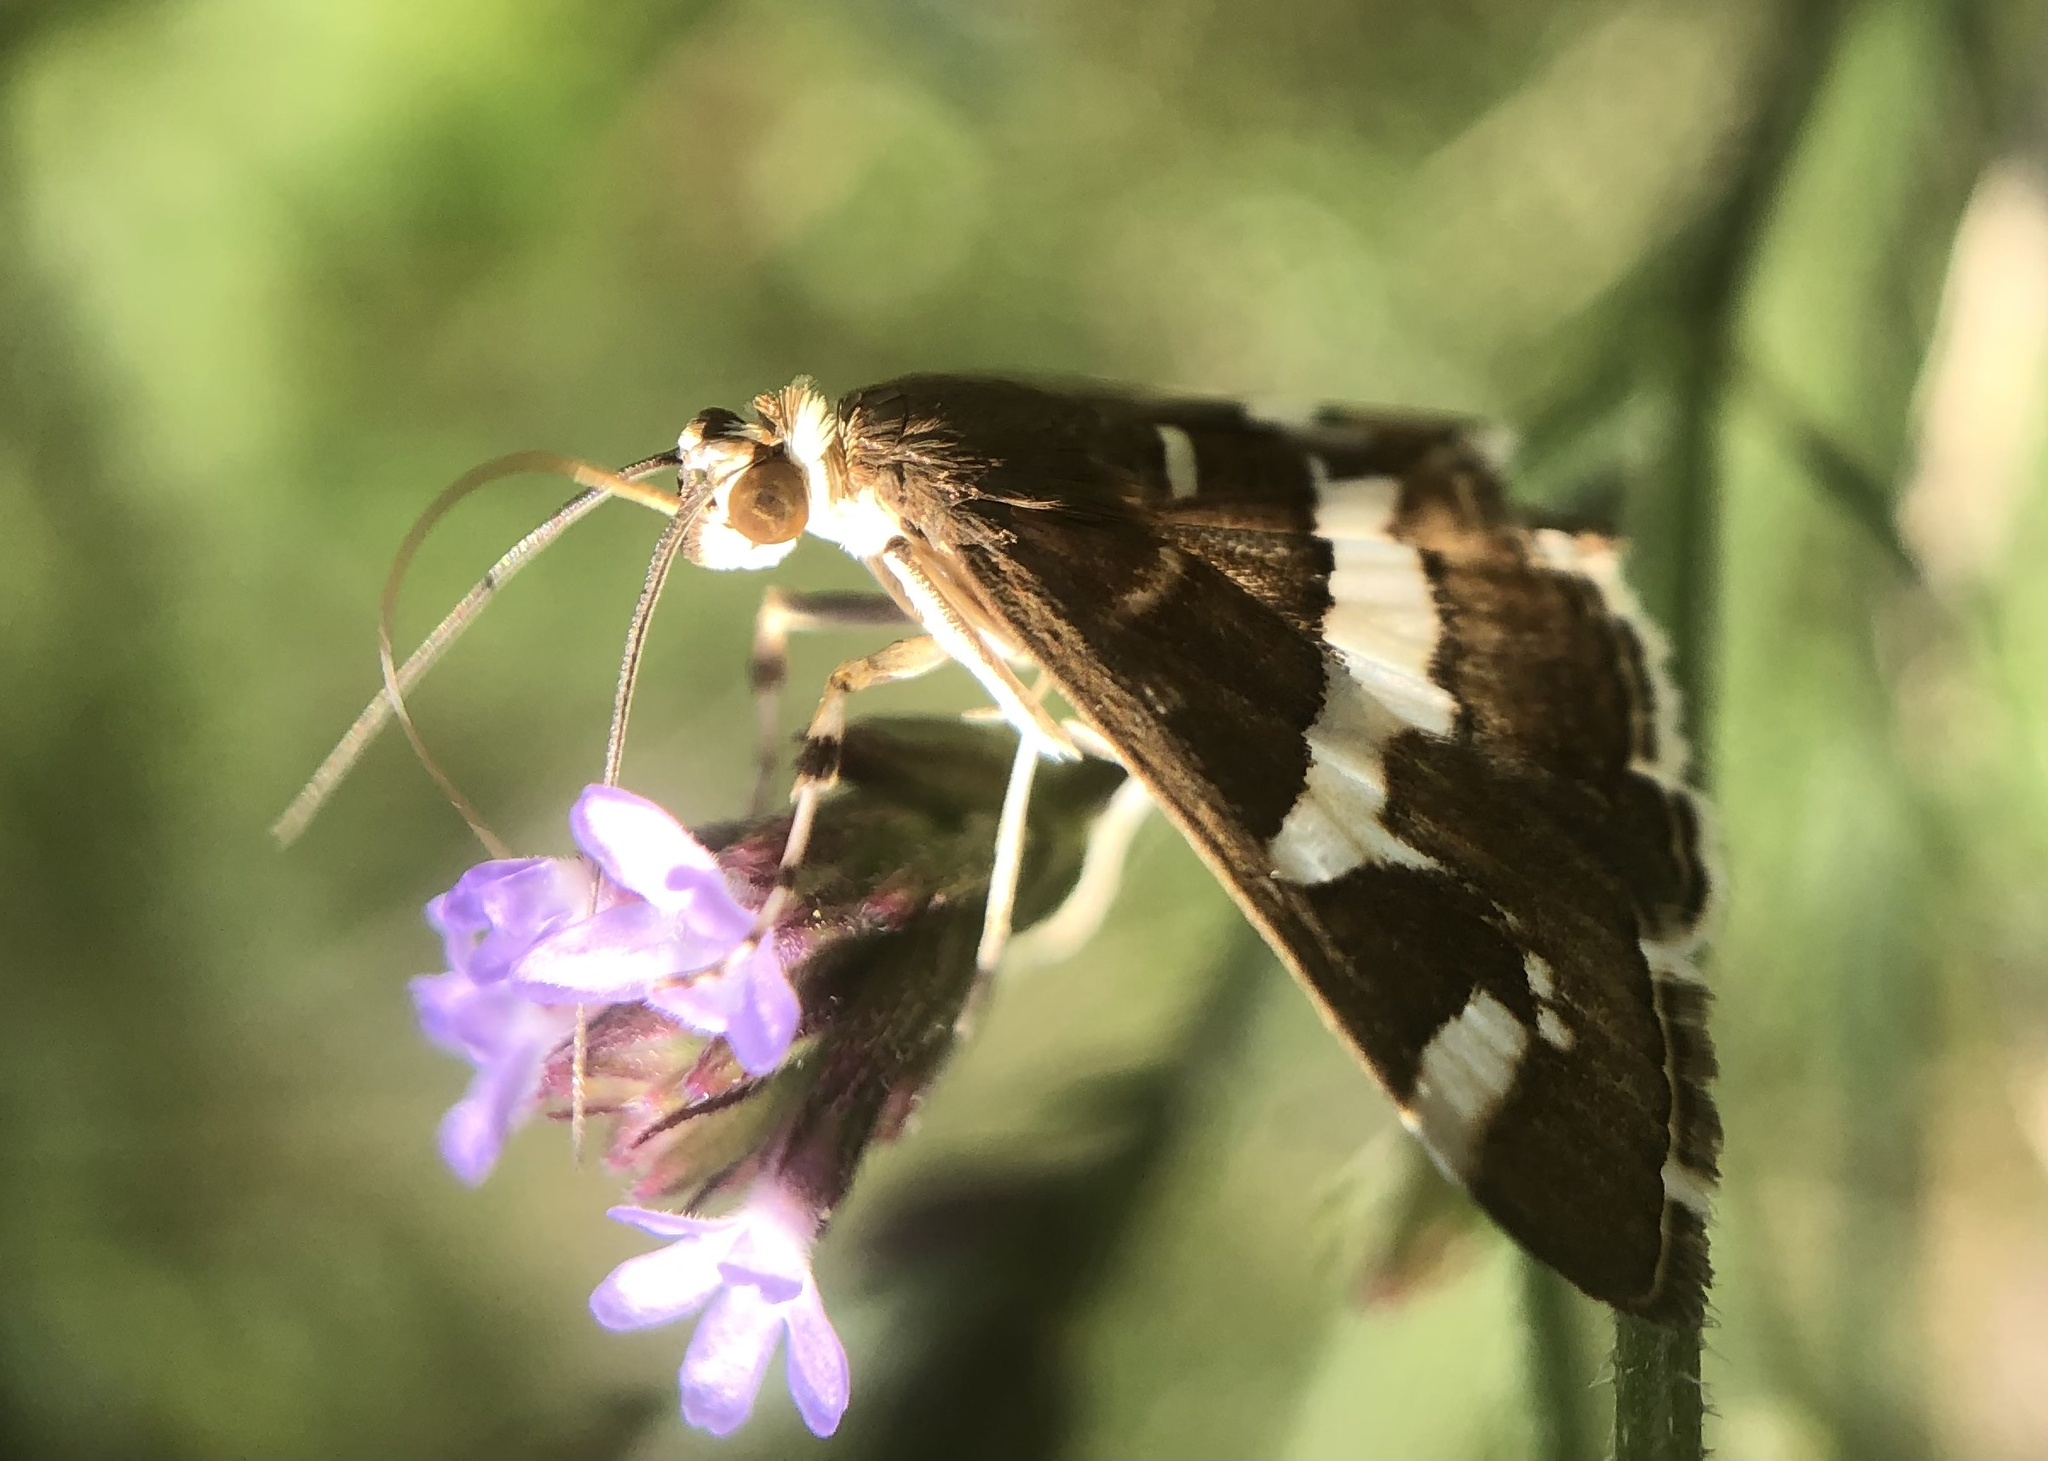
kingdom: Animalia
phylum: Arthropoda
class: Insecta
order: Lepidoptera
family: Crambidae
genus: Spoladea
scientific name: Spoladea recurvalis
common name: Beet webworm moth
